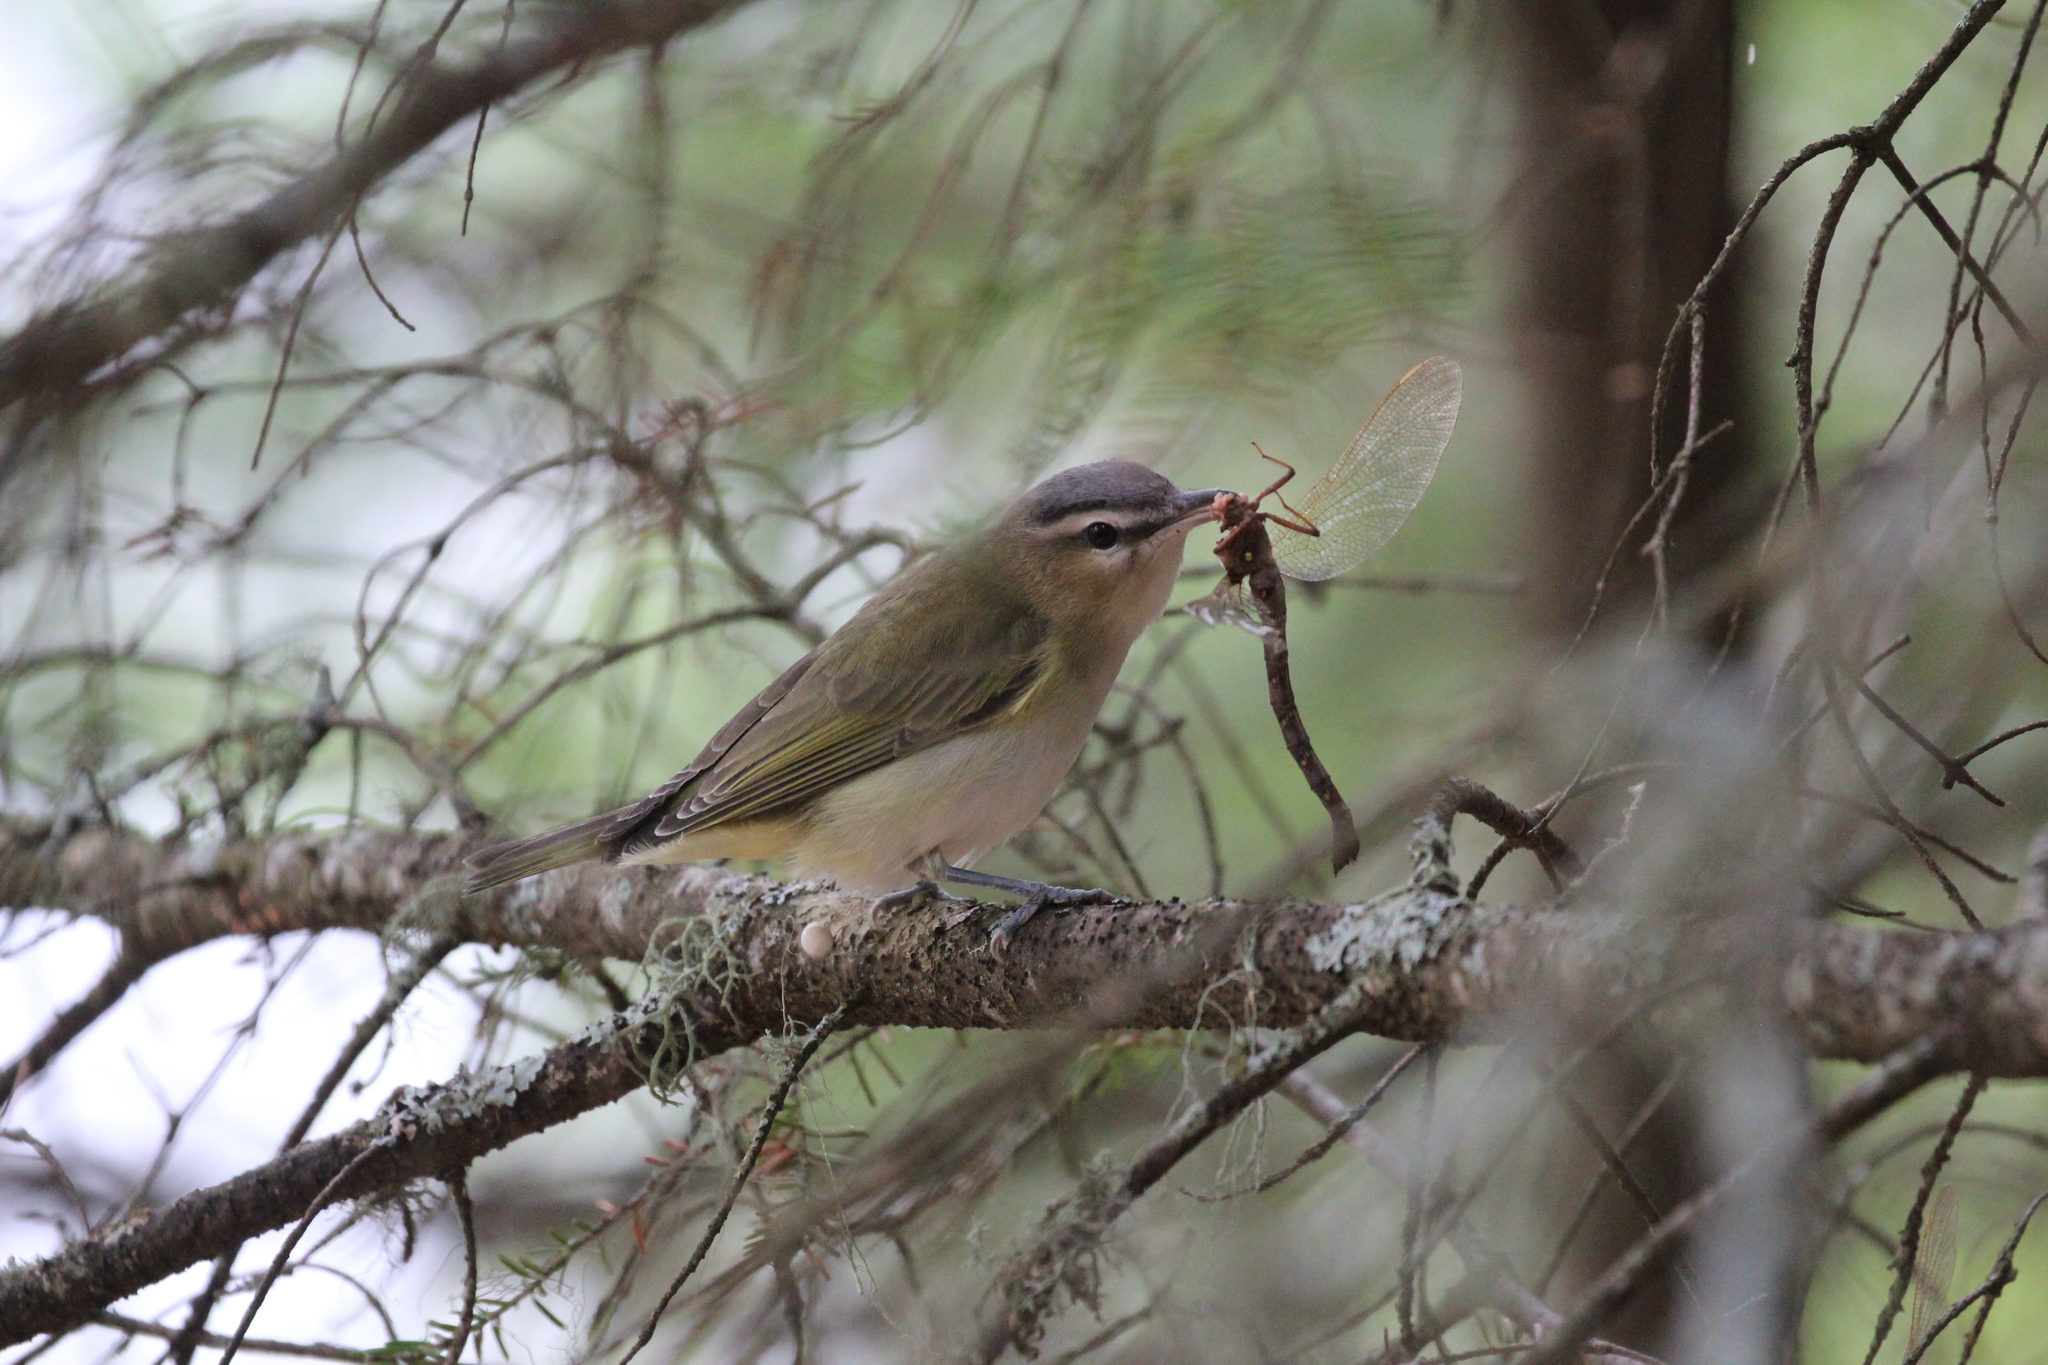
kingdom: Animalia
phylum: Arthropoda
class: Insecta
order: Odonata
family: Aeshnidae
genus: Boyeria
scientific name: Boyeria vinosa
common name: Fawn darner
